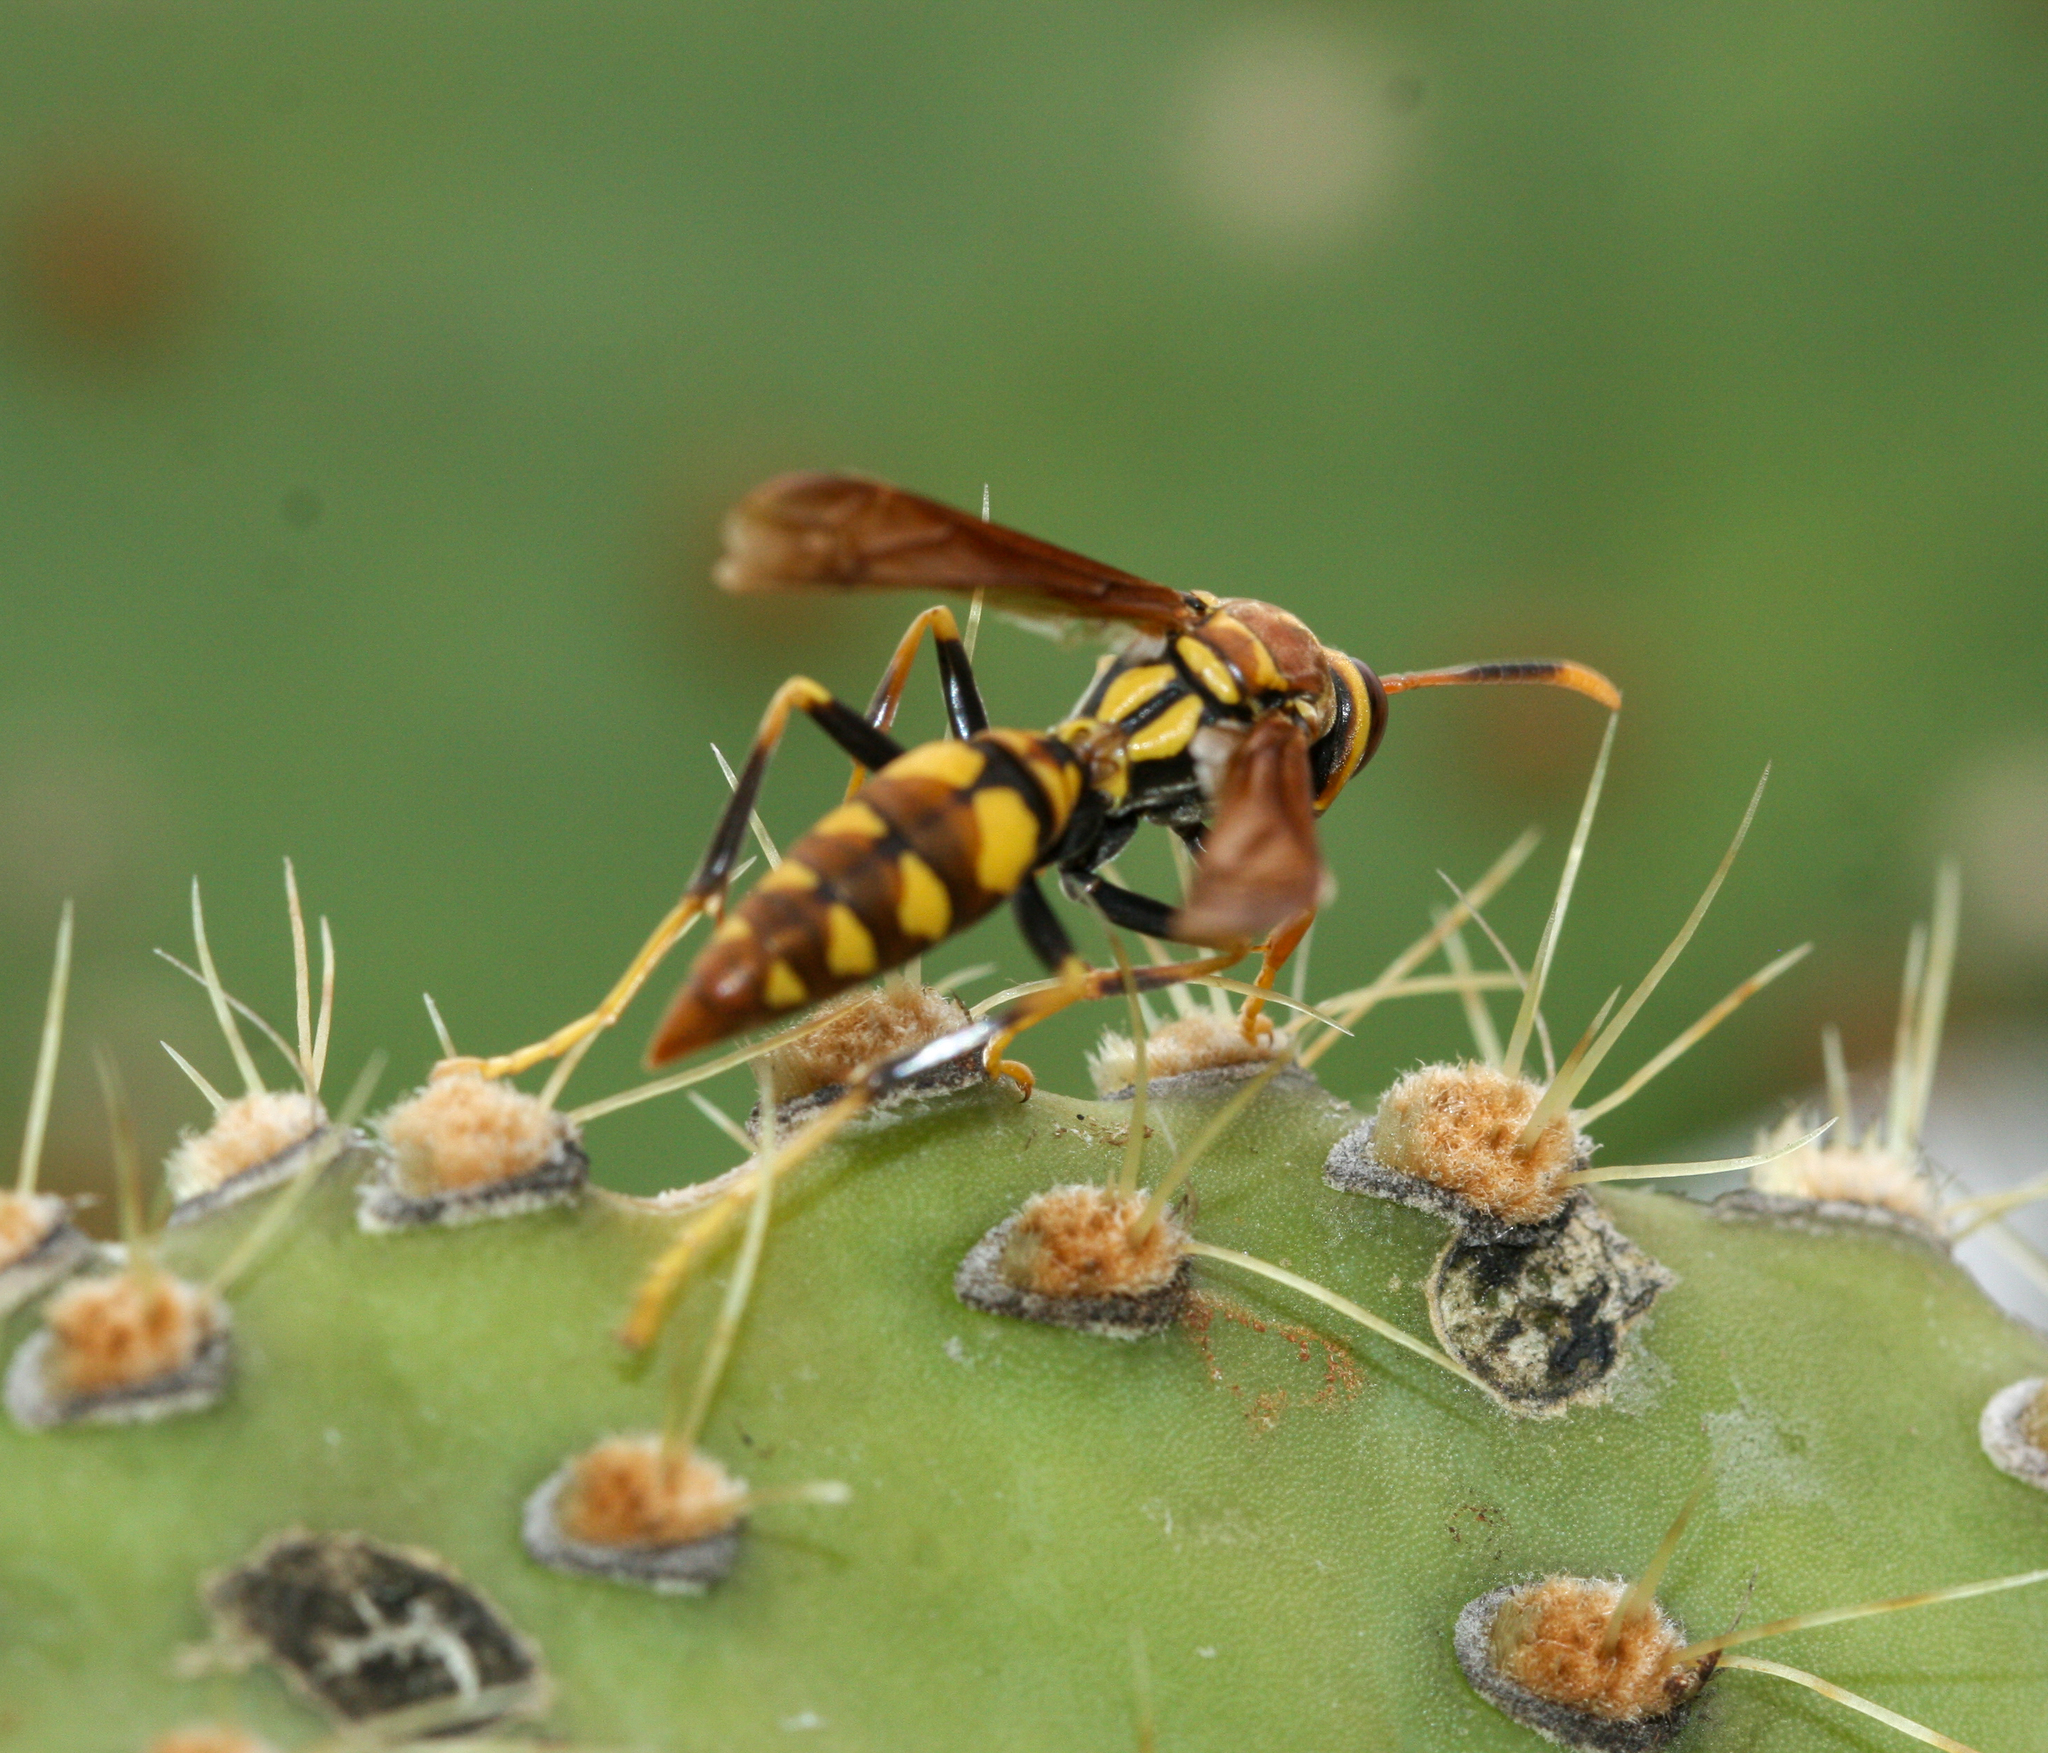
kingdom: Animalia
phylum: Arthropoda
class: Insecta
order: Hymenoptera
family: Eumenidae
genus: Polistes
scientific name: Polistes versicolor
